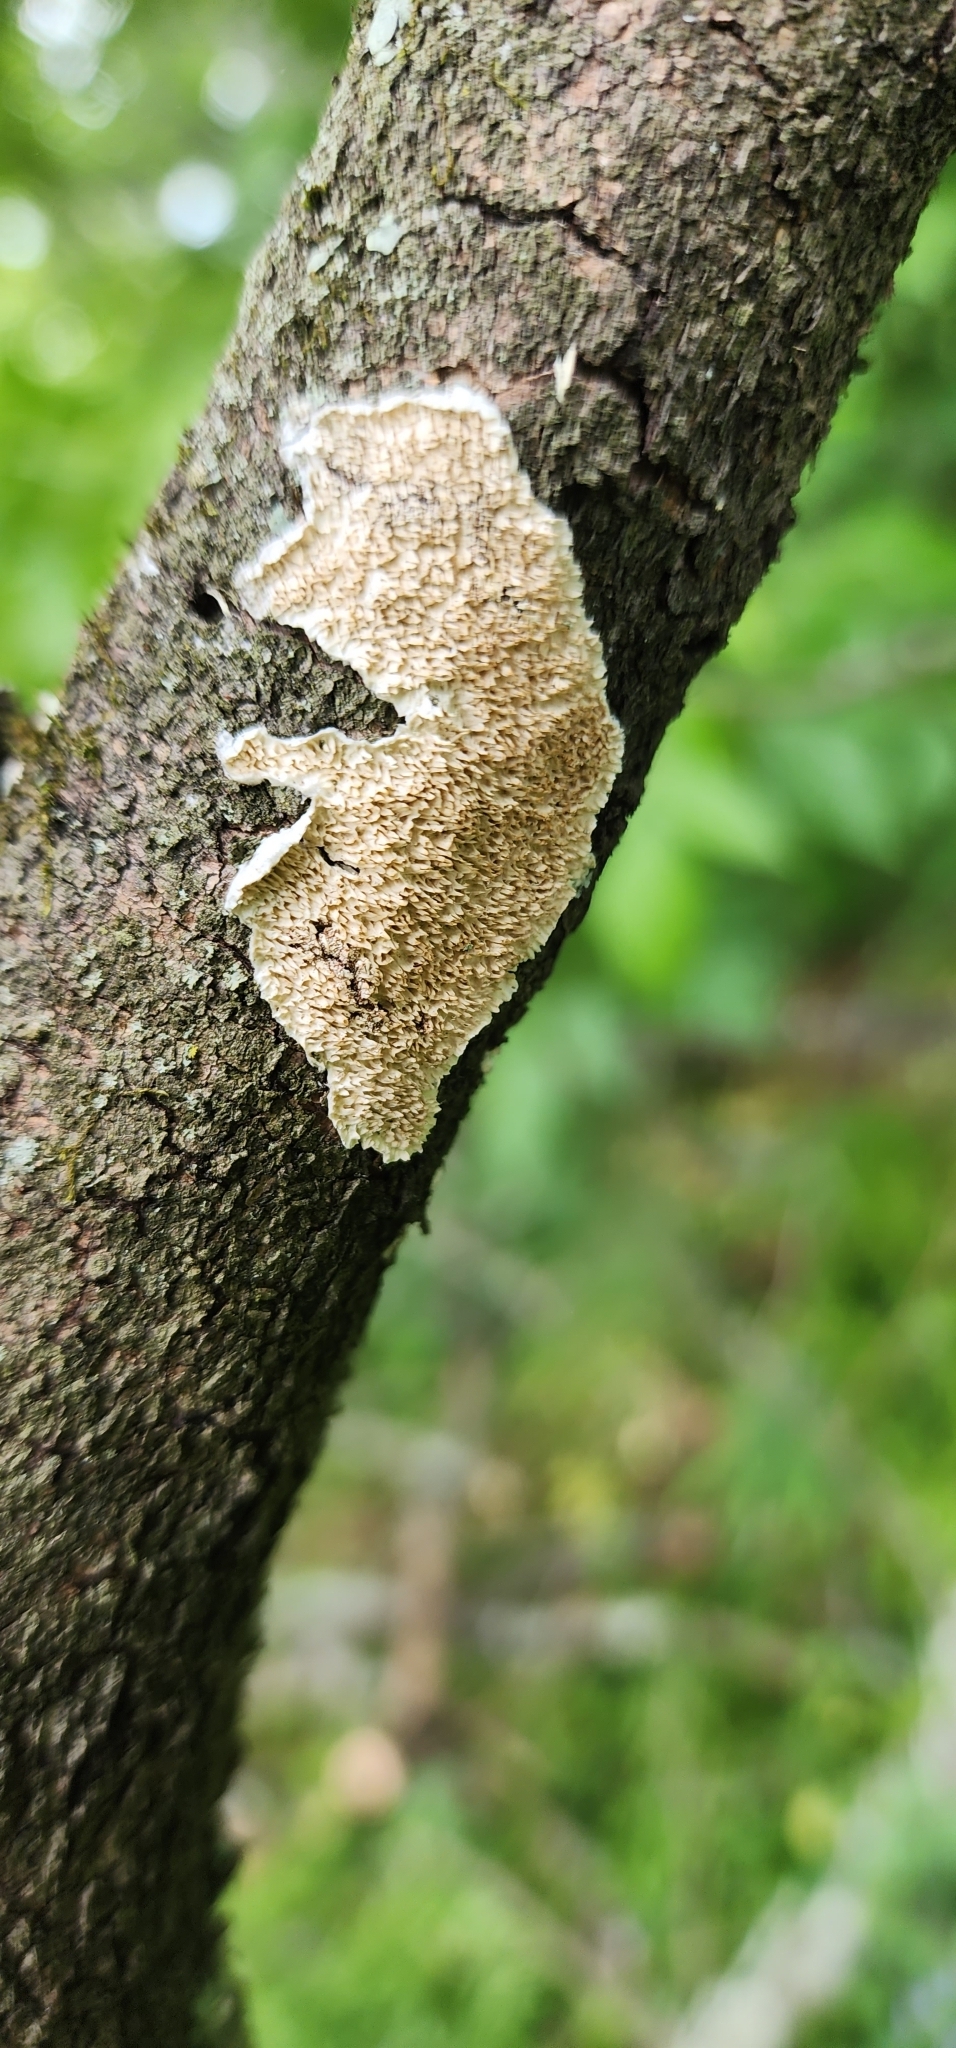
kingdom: Fungi
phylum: Basidiomycota
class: Agaricomycetes
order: Polyporales
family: Irpicaceae
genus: Irpex
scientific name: Irpex lacteus
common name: Milk-white toothed polypore
